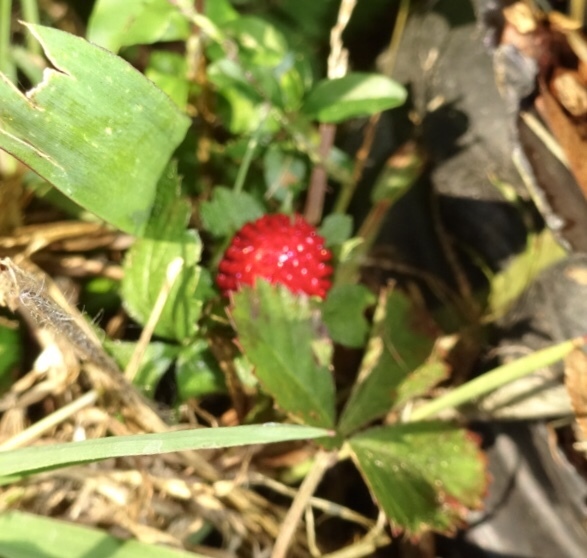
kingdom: Plantae
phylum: Tracheophyta
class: Magnoliopsida
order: Rosales
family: Rosaceae
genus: Potentilla
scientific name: Potentilla indica
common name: Yellow-flowered strawberry
